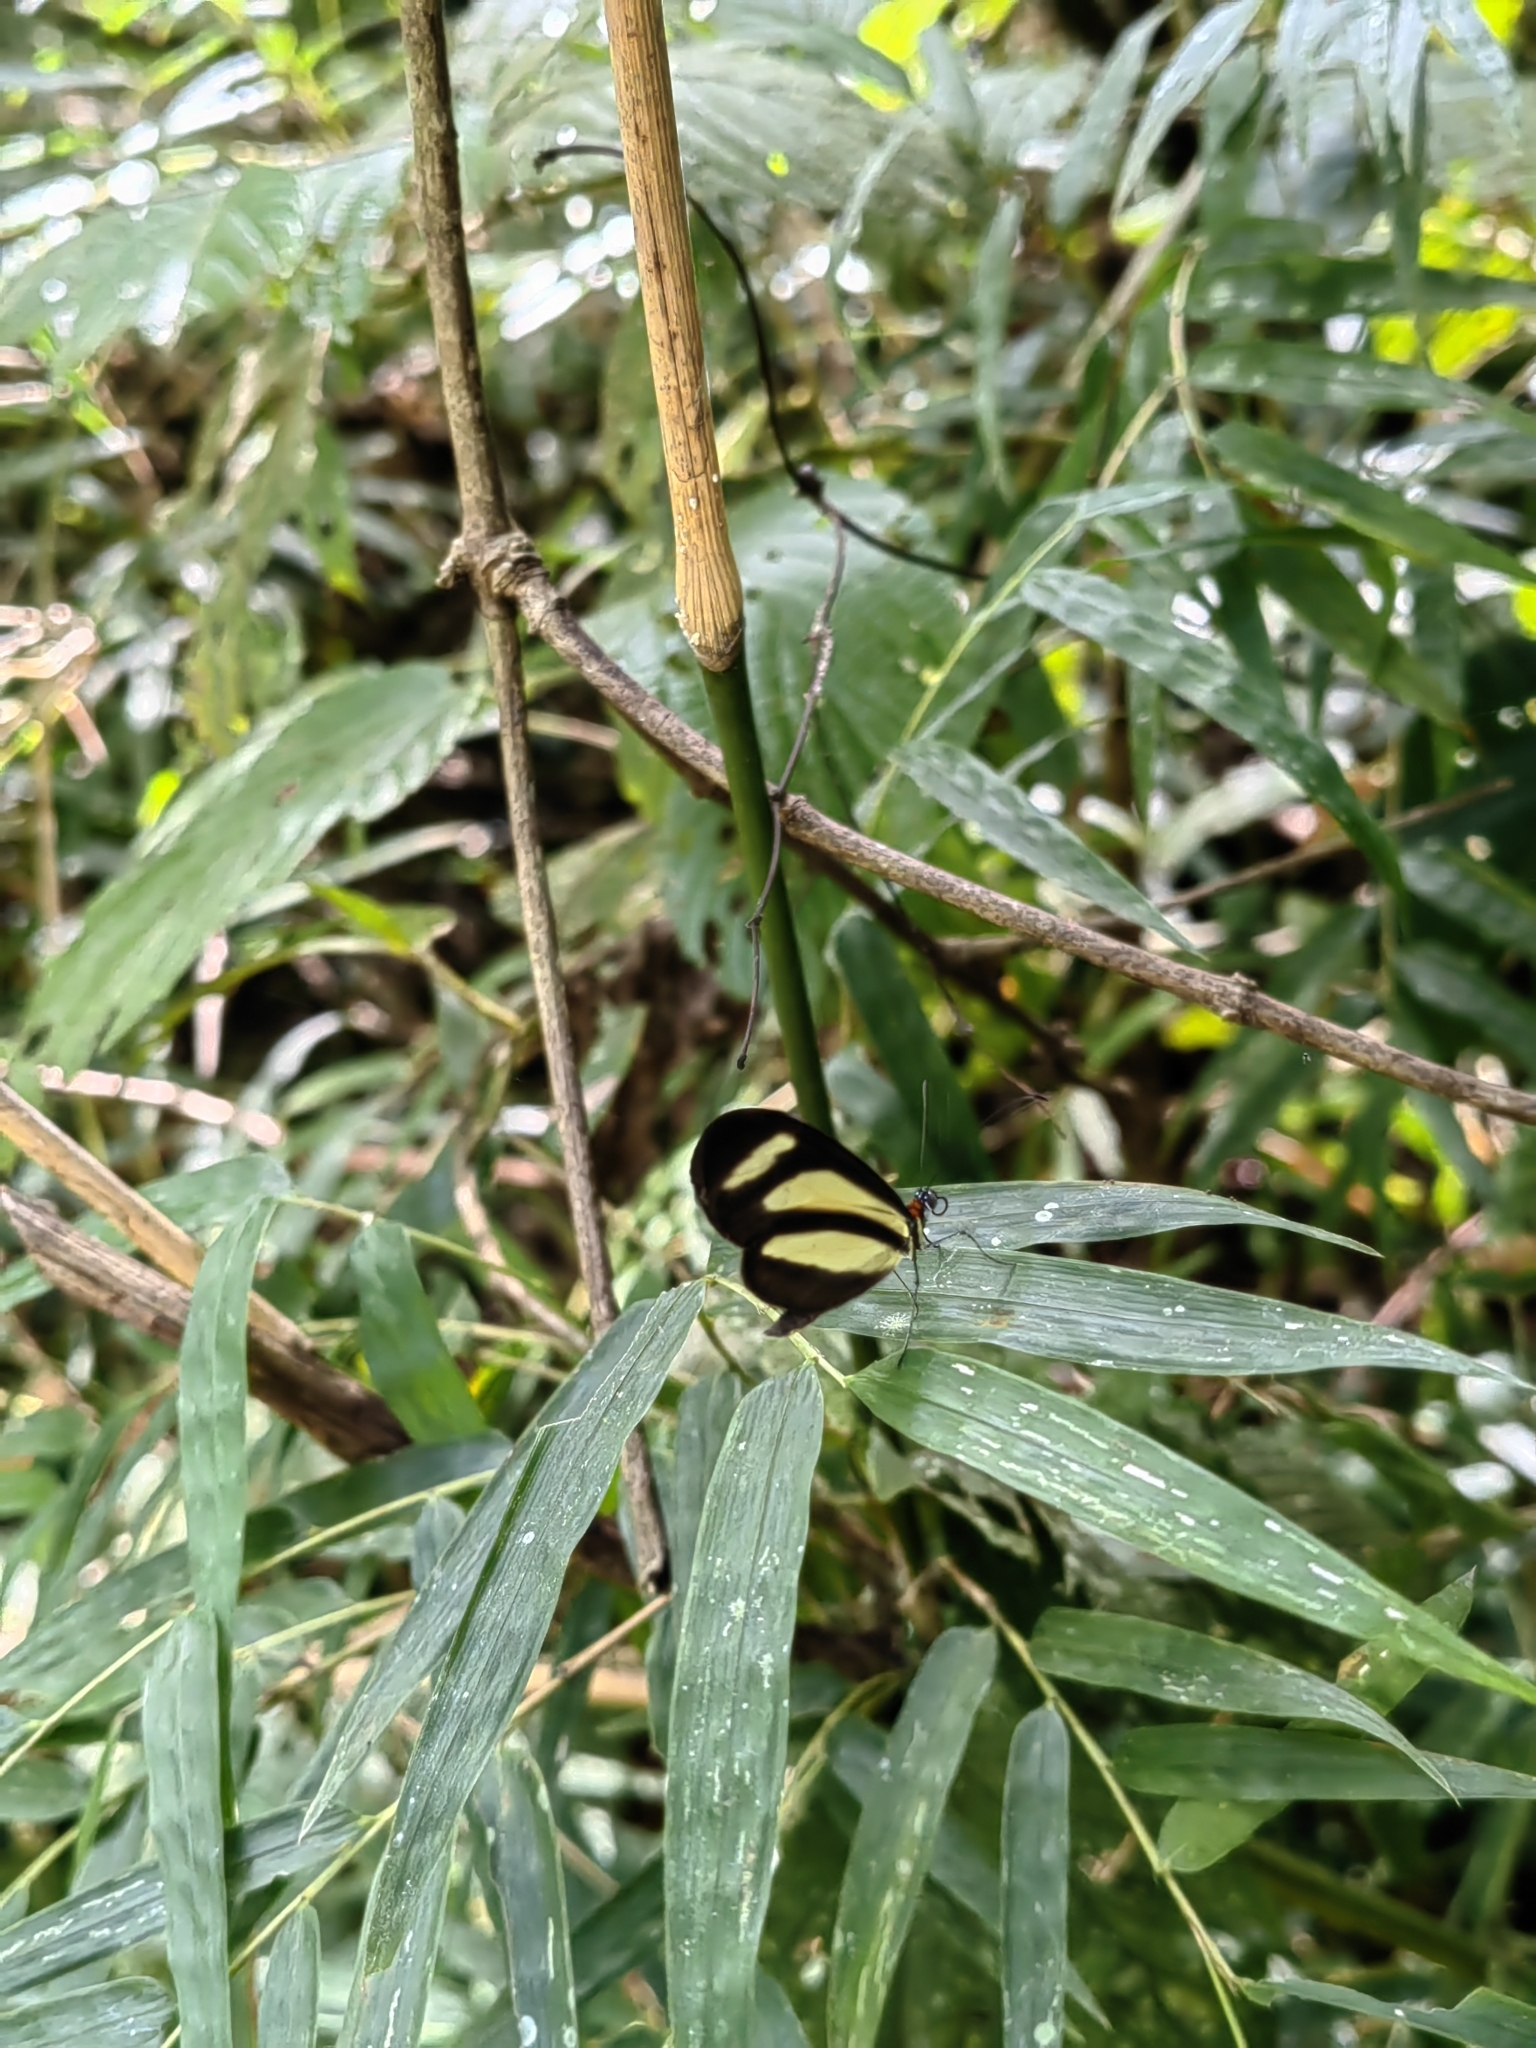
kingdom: Animalia
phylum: Arthropoda
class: Insecta
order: Lepidoptera
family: Nymphalidae
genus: Aeria
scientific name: Aeria olena
